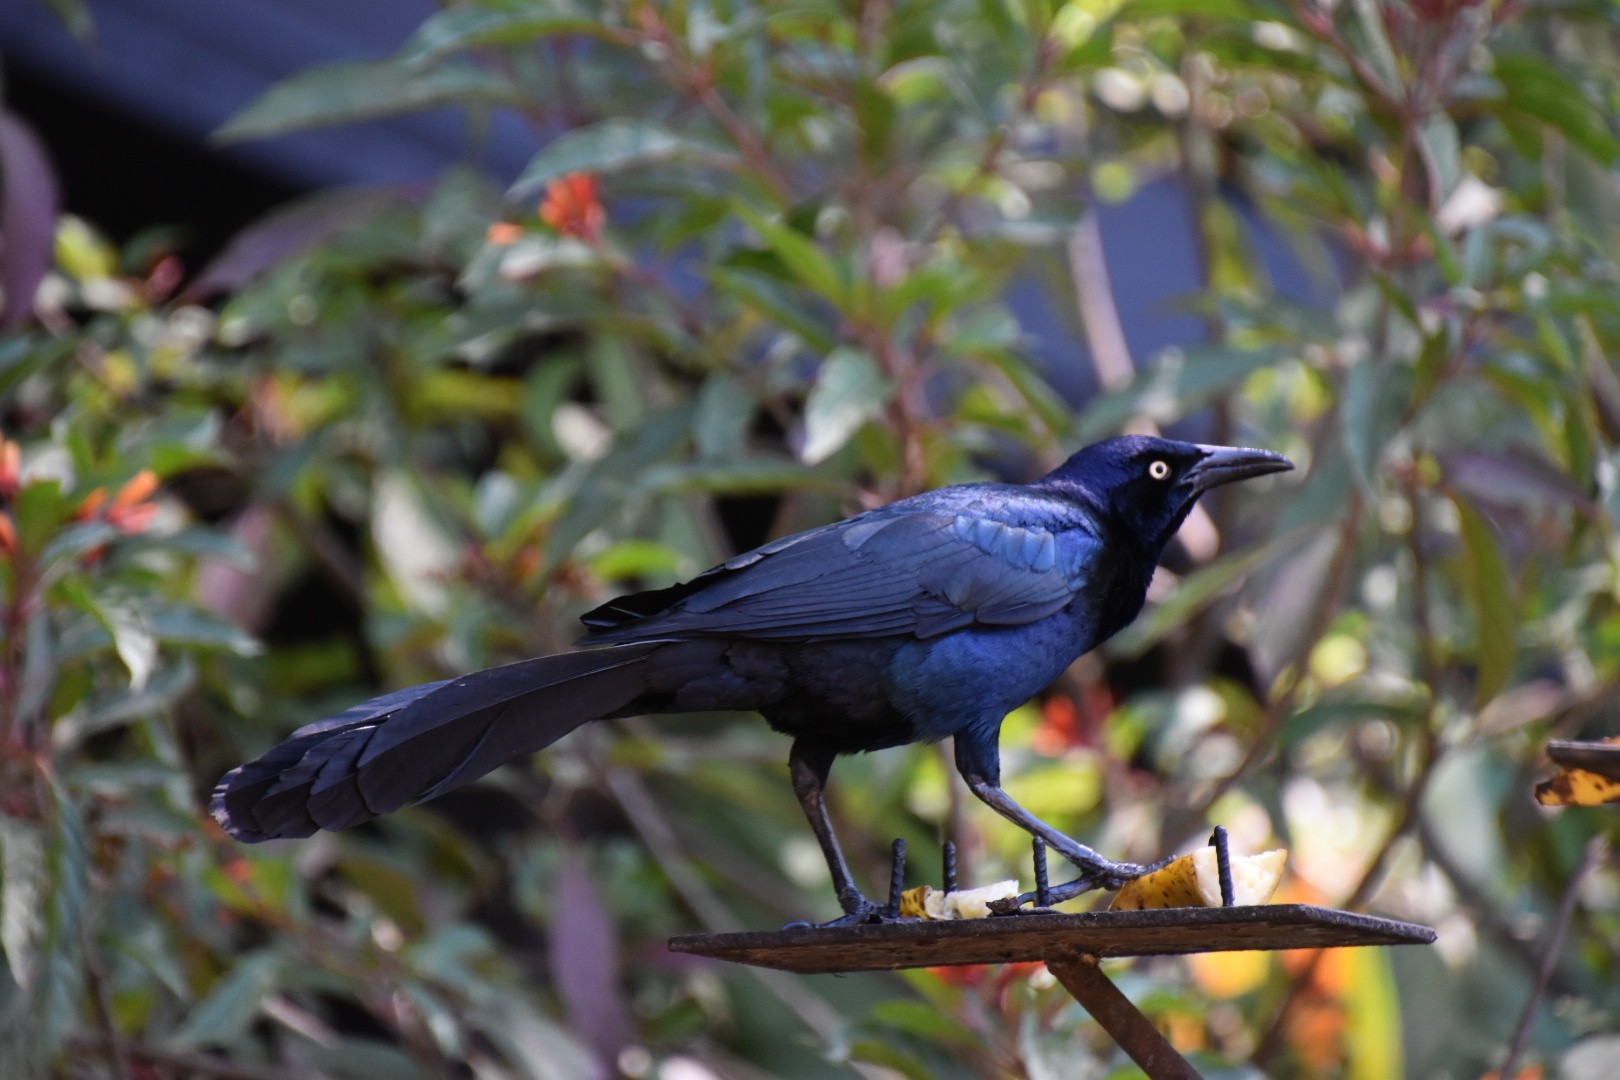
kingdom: Animalia
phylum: Chordata
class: Aves
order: Passeriformes
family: Icteridae
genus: Quiscalus
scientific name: Quiscalus mexicanus
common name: Great-tailed grackle
